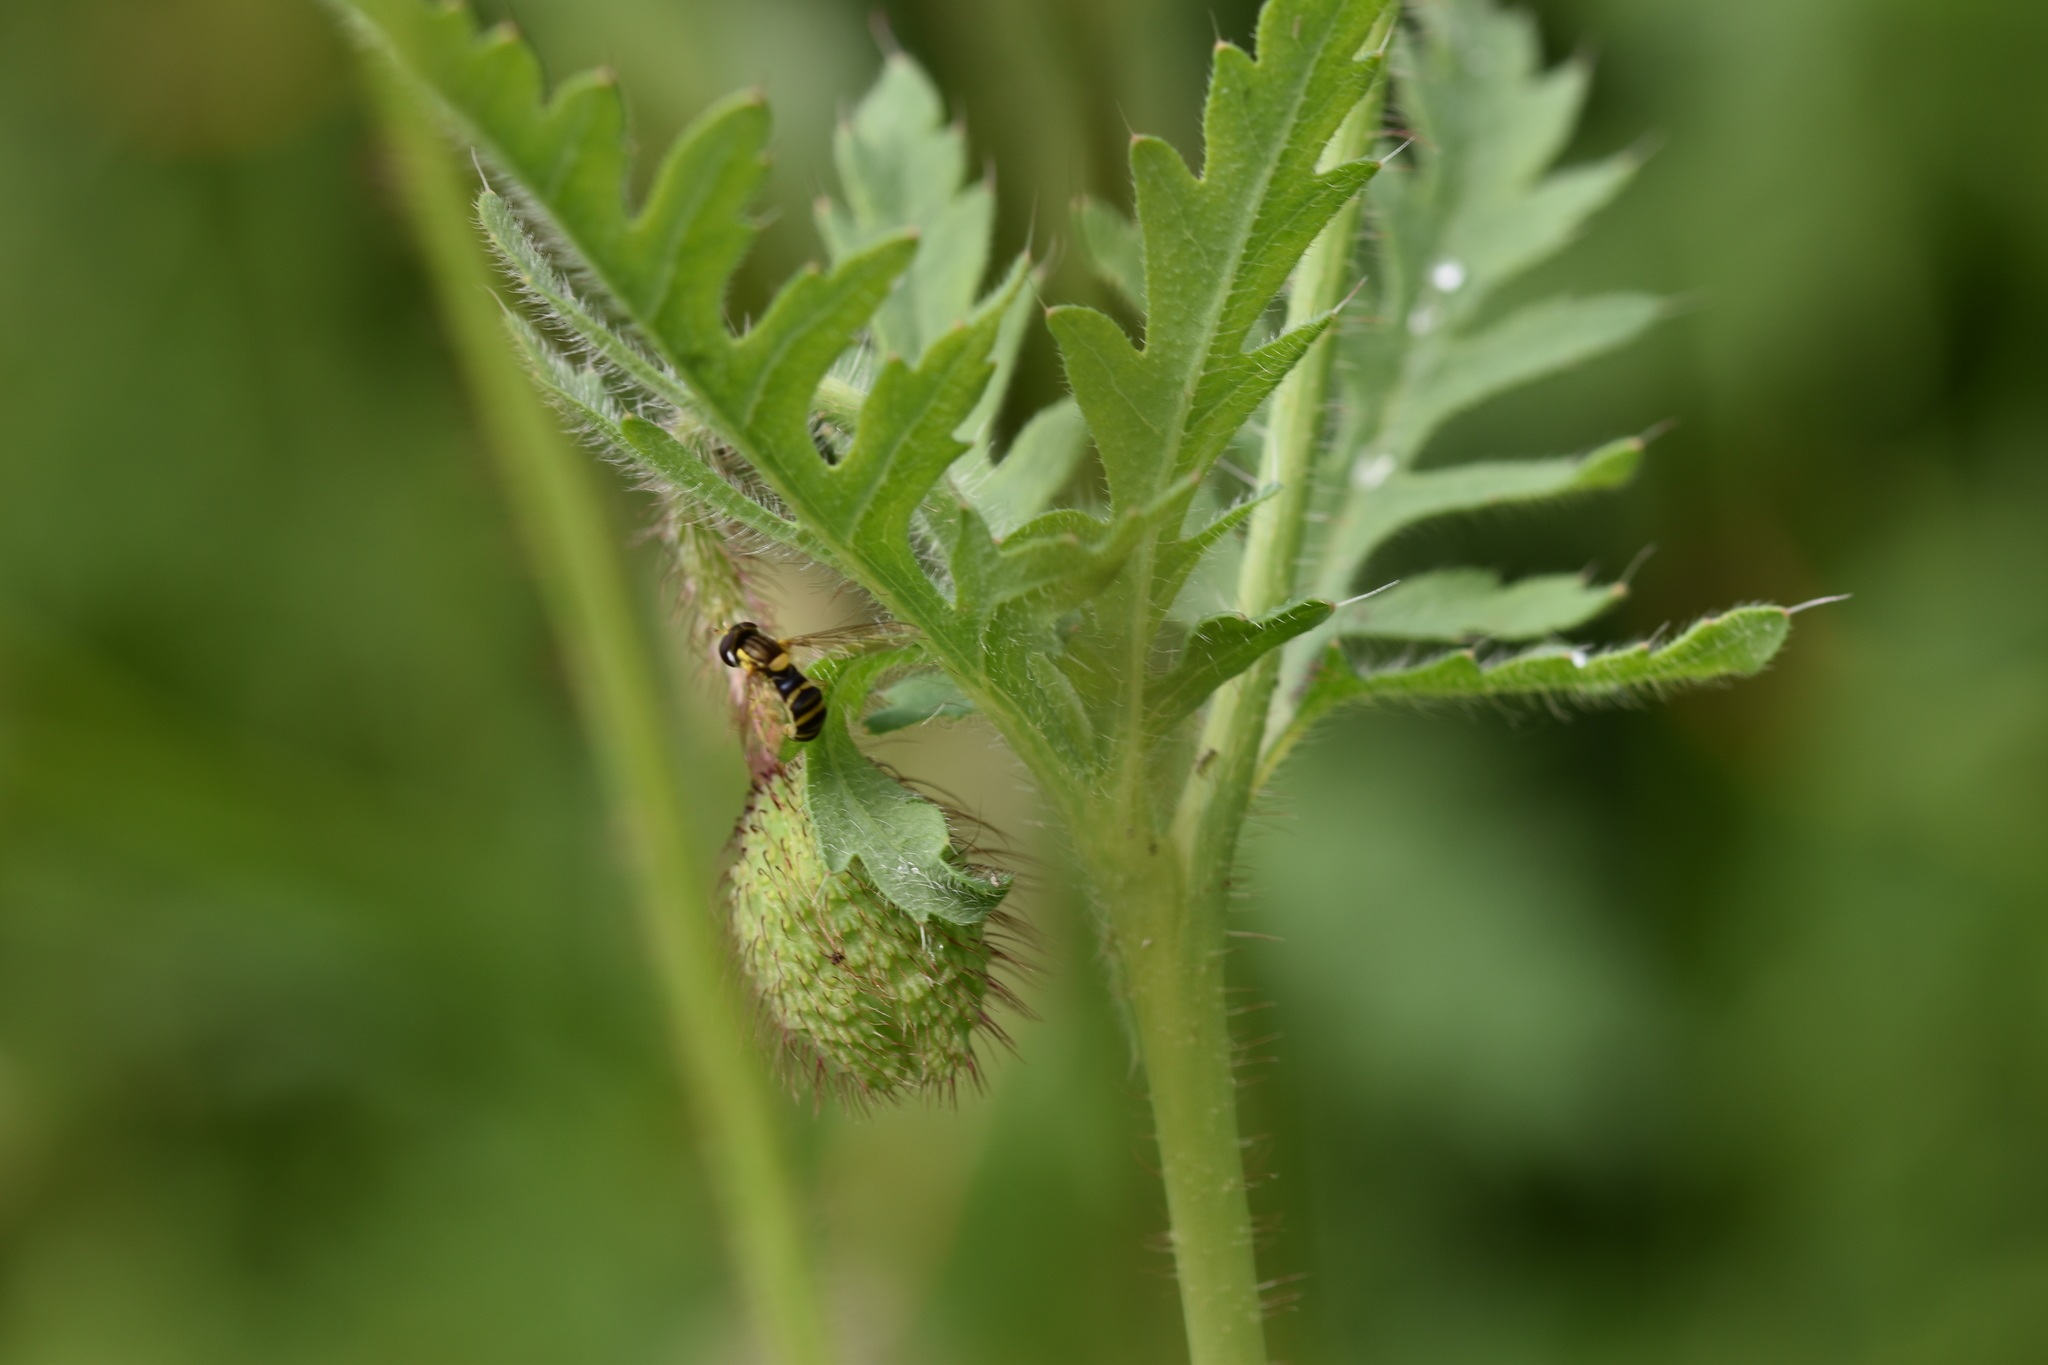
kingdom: Animalia
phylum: Arthropoda
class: Insecta
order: Diptera
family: Syrphidae
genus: Sphaerophoria
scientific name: Sphaerophoria
